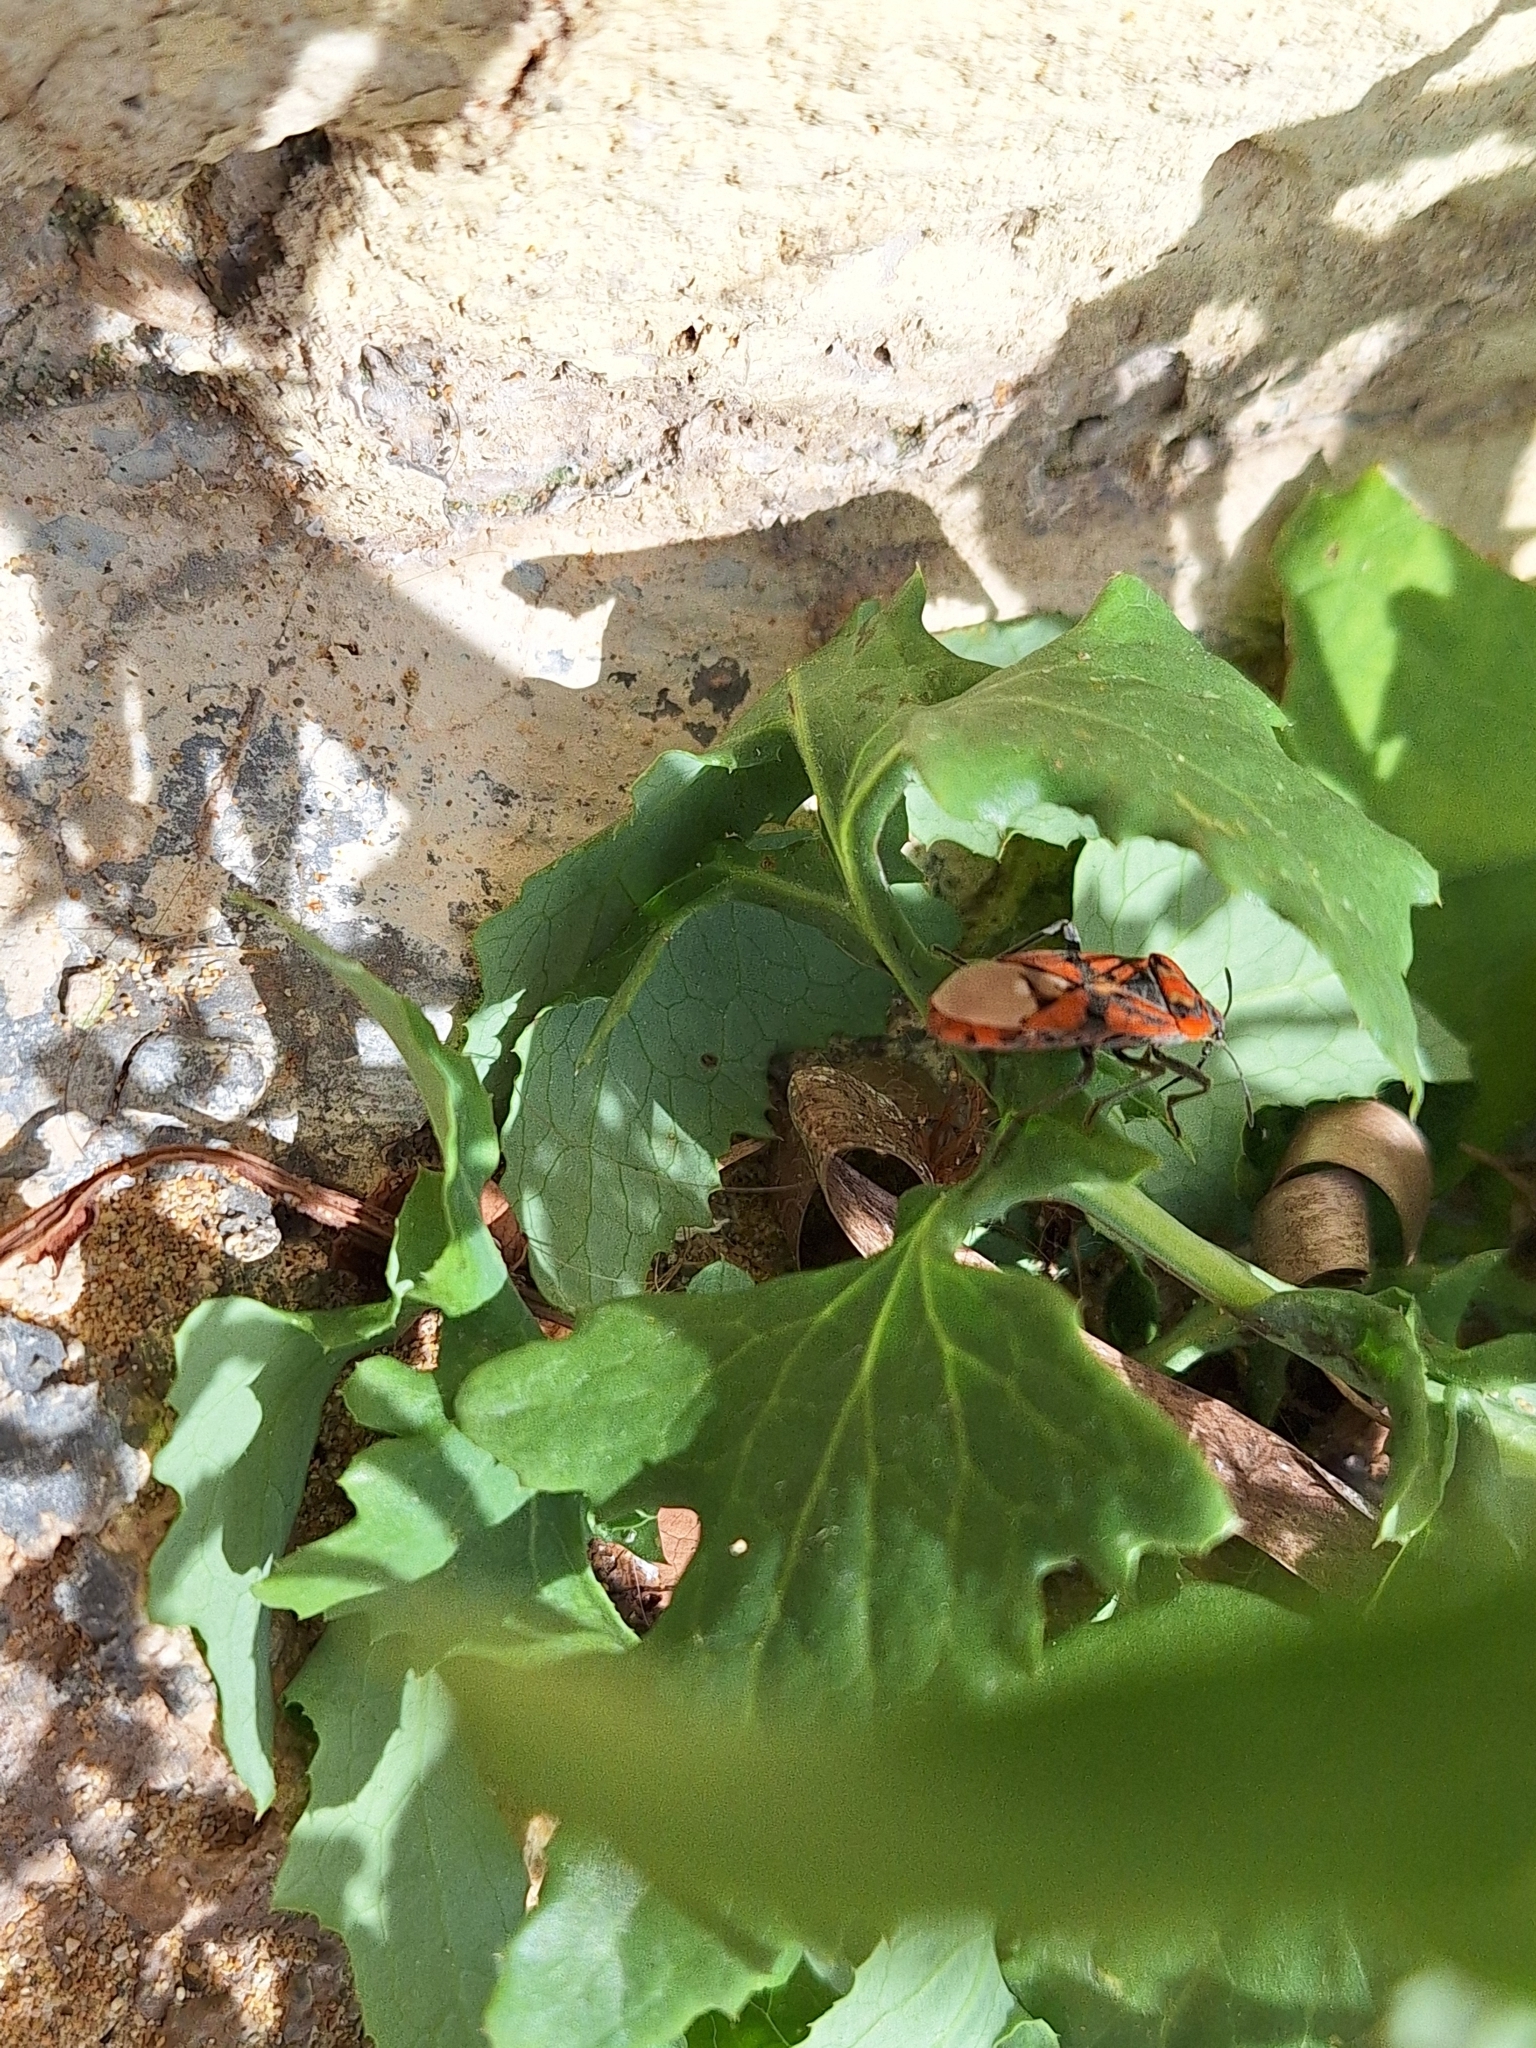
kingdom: Animalia
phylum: Arthropoda
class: Insecta
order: Hemiptera
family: Lygaeidae
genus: Spilostethus
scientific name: Spilostethus pandurus
